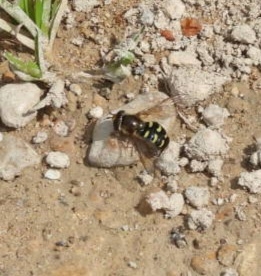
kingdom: Animalia
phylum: Arthropoda
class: Insecta
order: Diptera
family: Syrphidae
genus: Eupeodes
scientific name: Eupeodes
